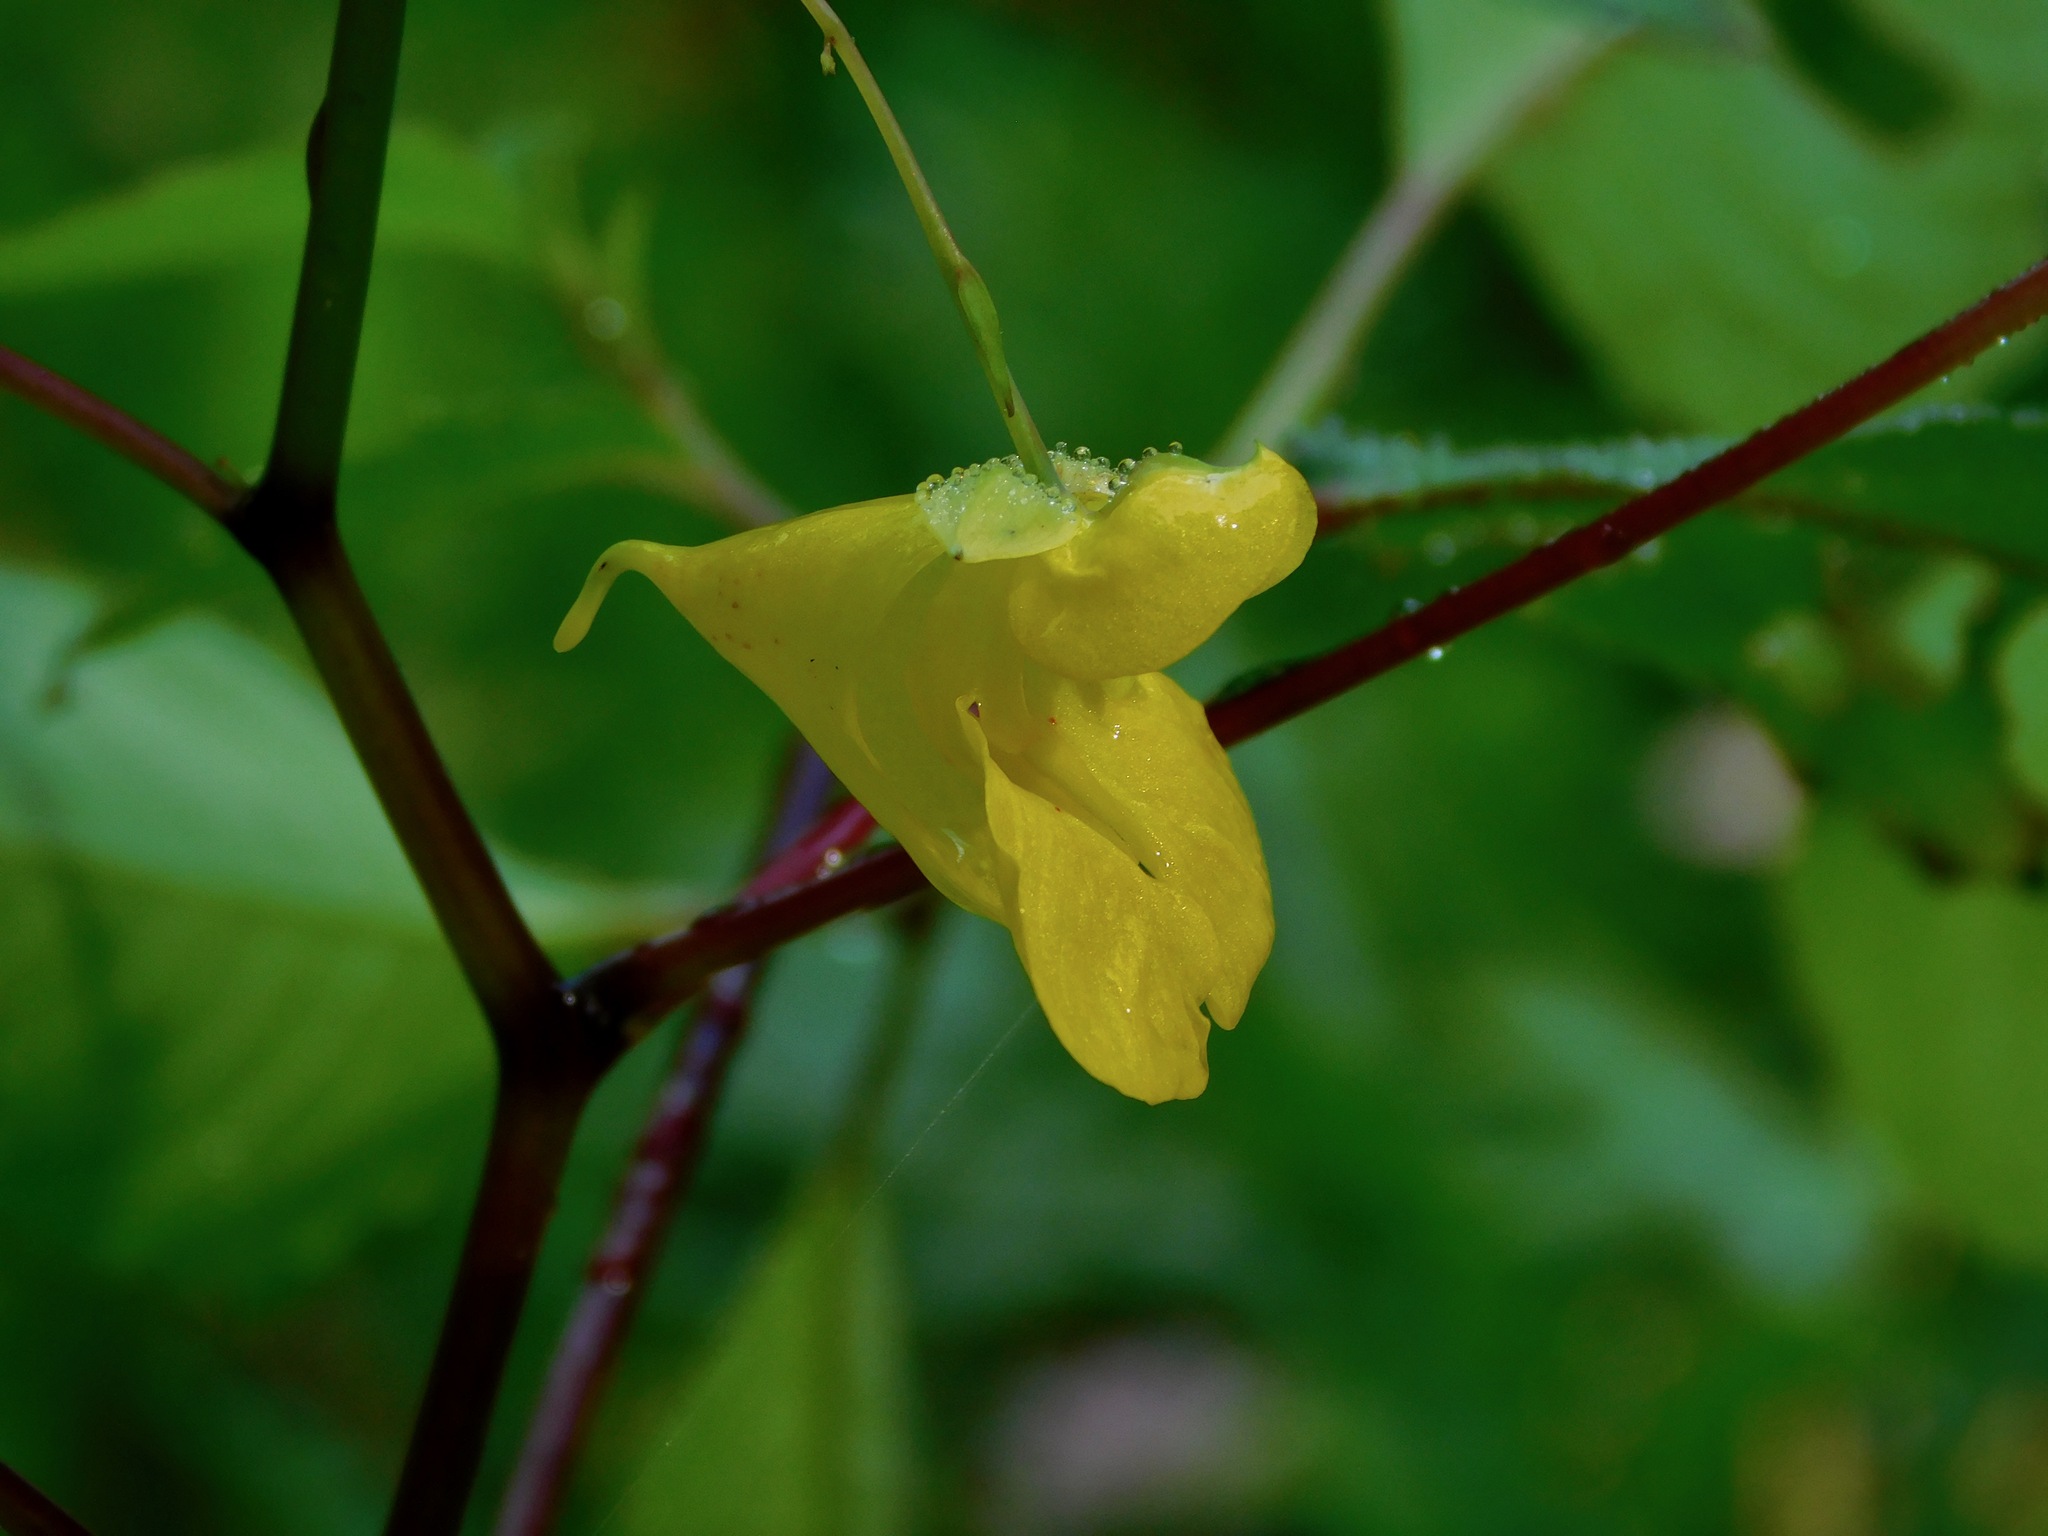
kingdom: Plantae
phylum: Tracheophyta
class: Magnoliopsida
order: Ericales
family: Balsaminaceae
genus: Impatiens
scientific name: Impatiens pallida
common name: Pale snapweed
